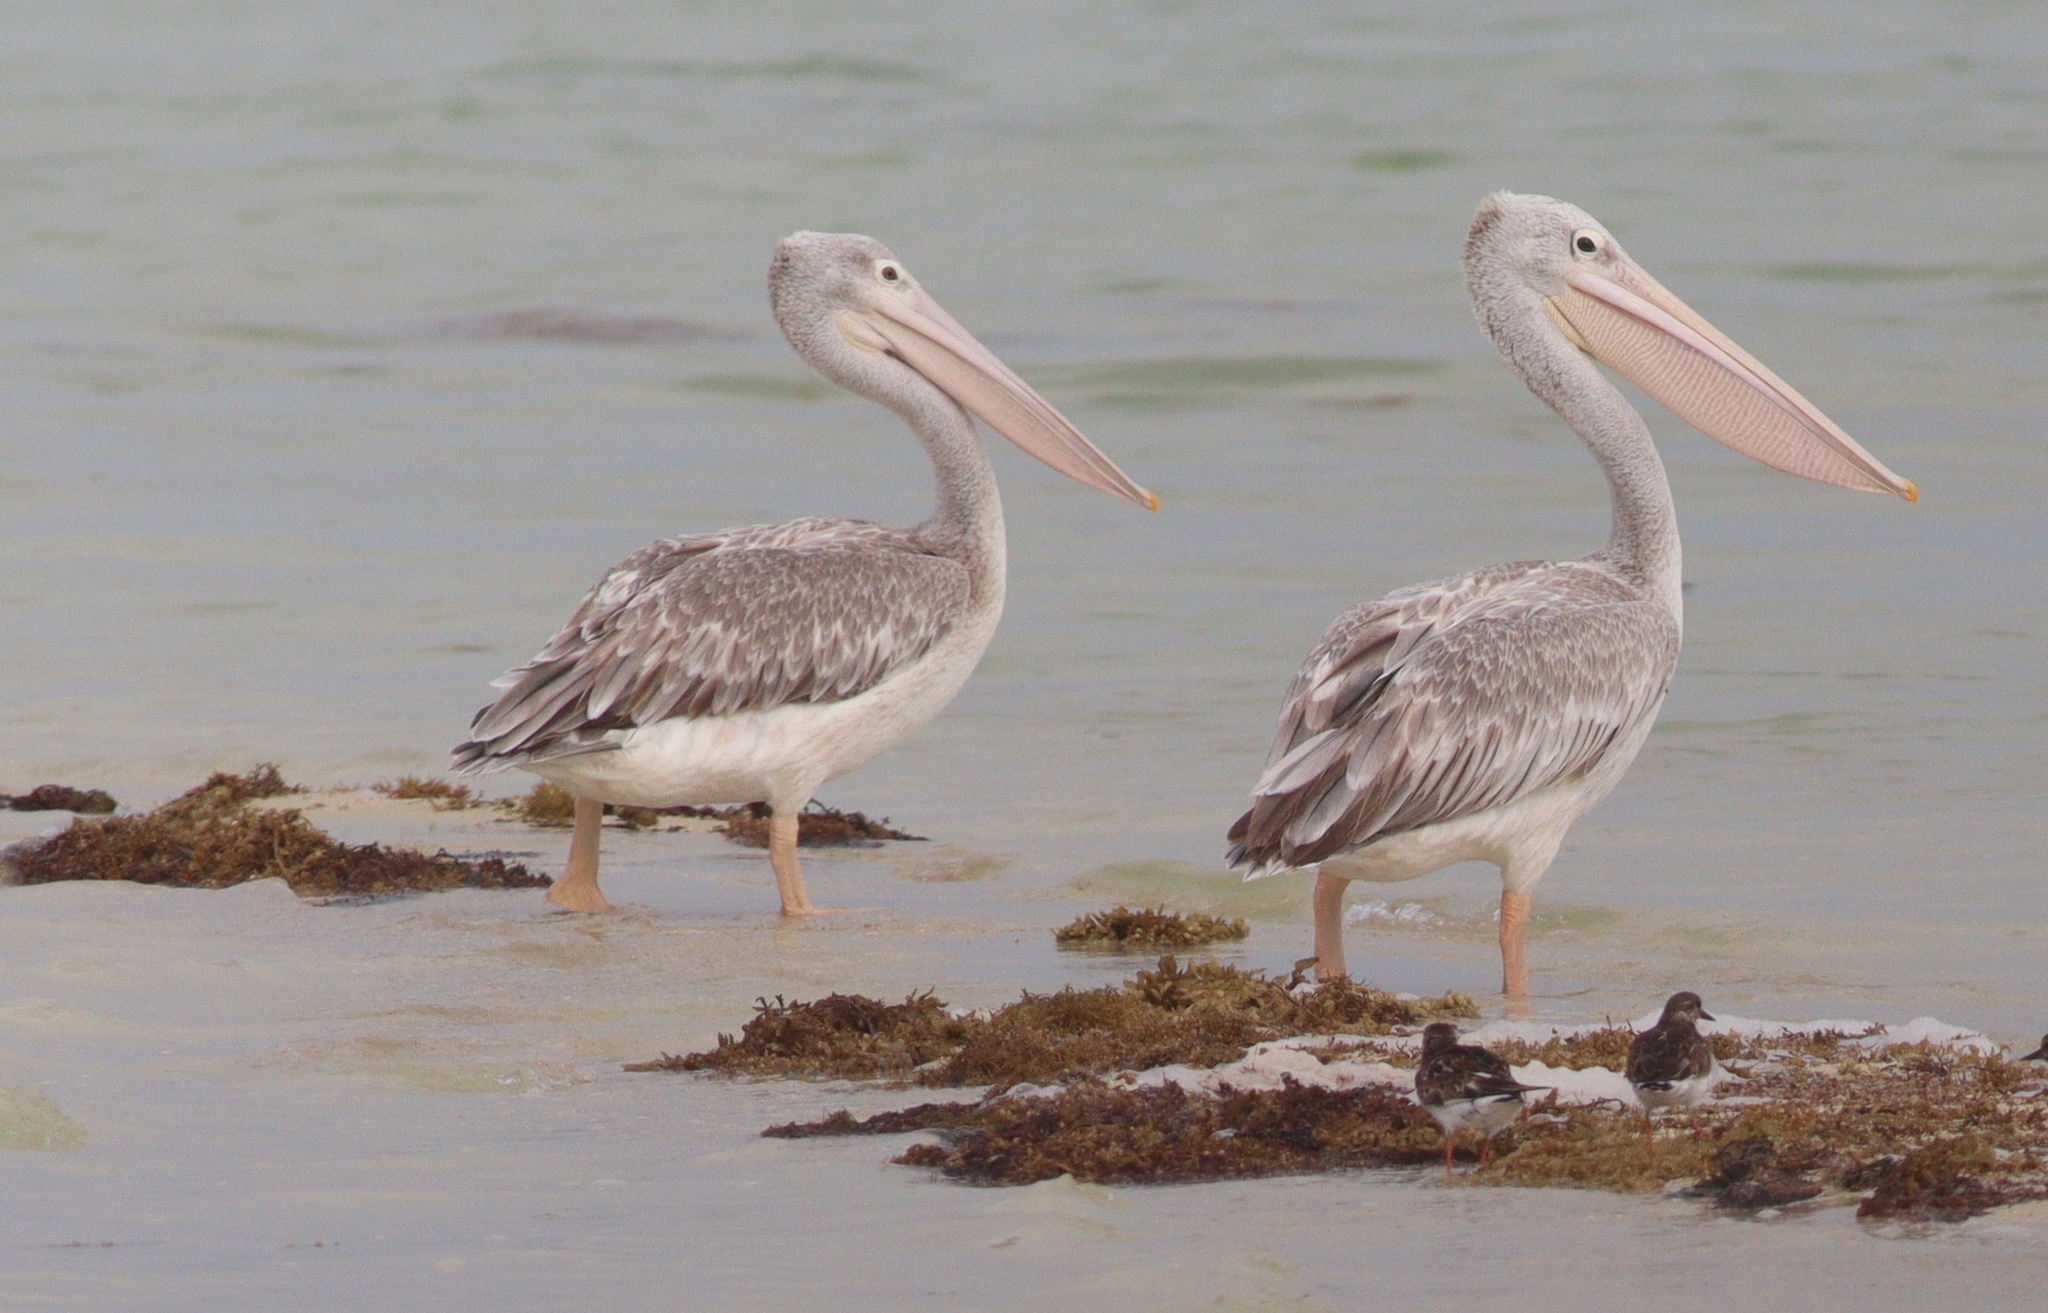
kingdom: Animalia
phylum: Chordata
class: Aves
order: Pelecaniformes
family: Pelecanidae
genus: Pelecanus
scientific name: Pelecanus rufescens
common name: Pink-backed pelican
